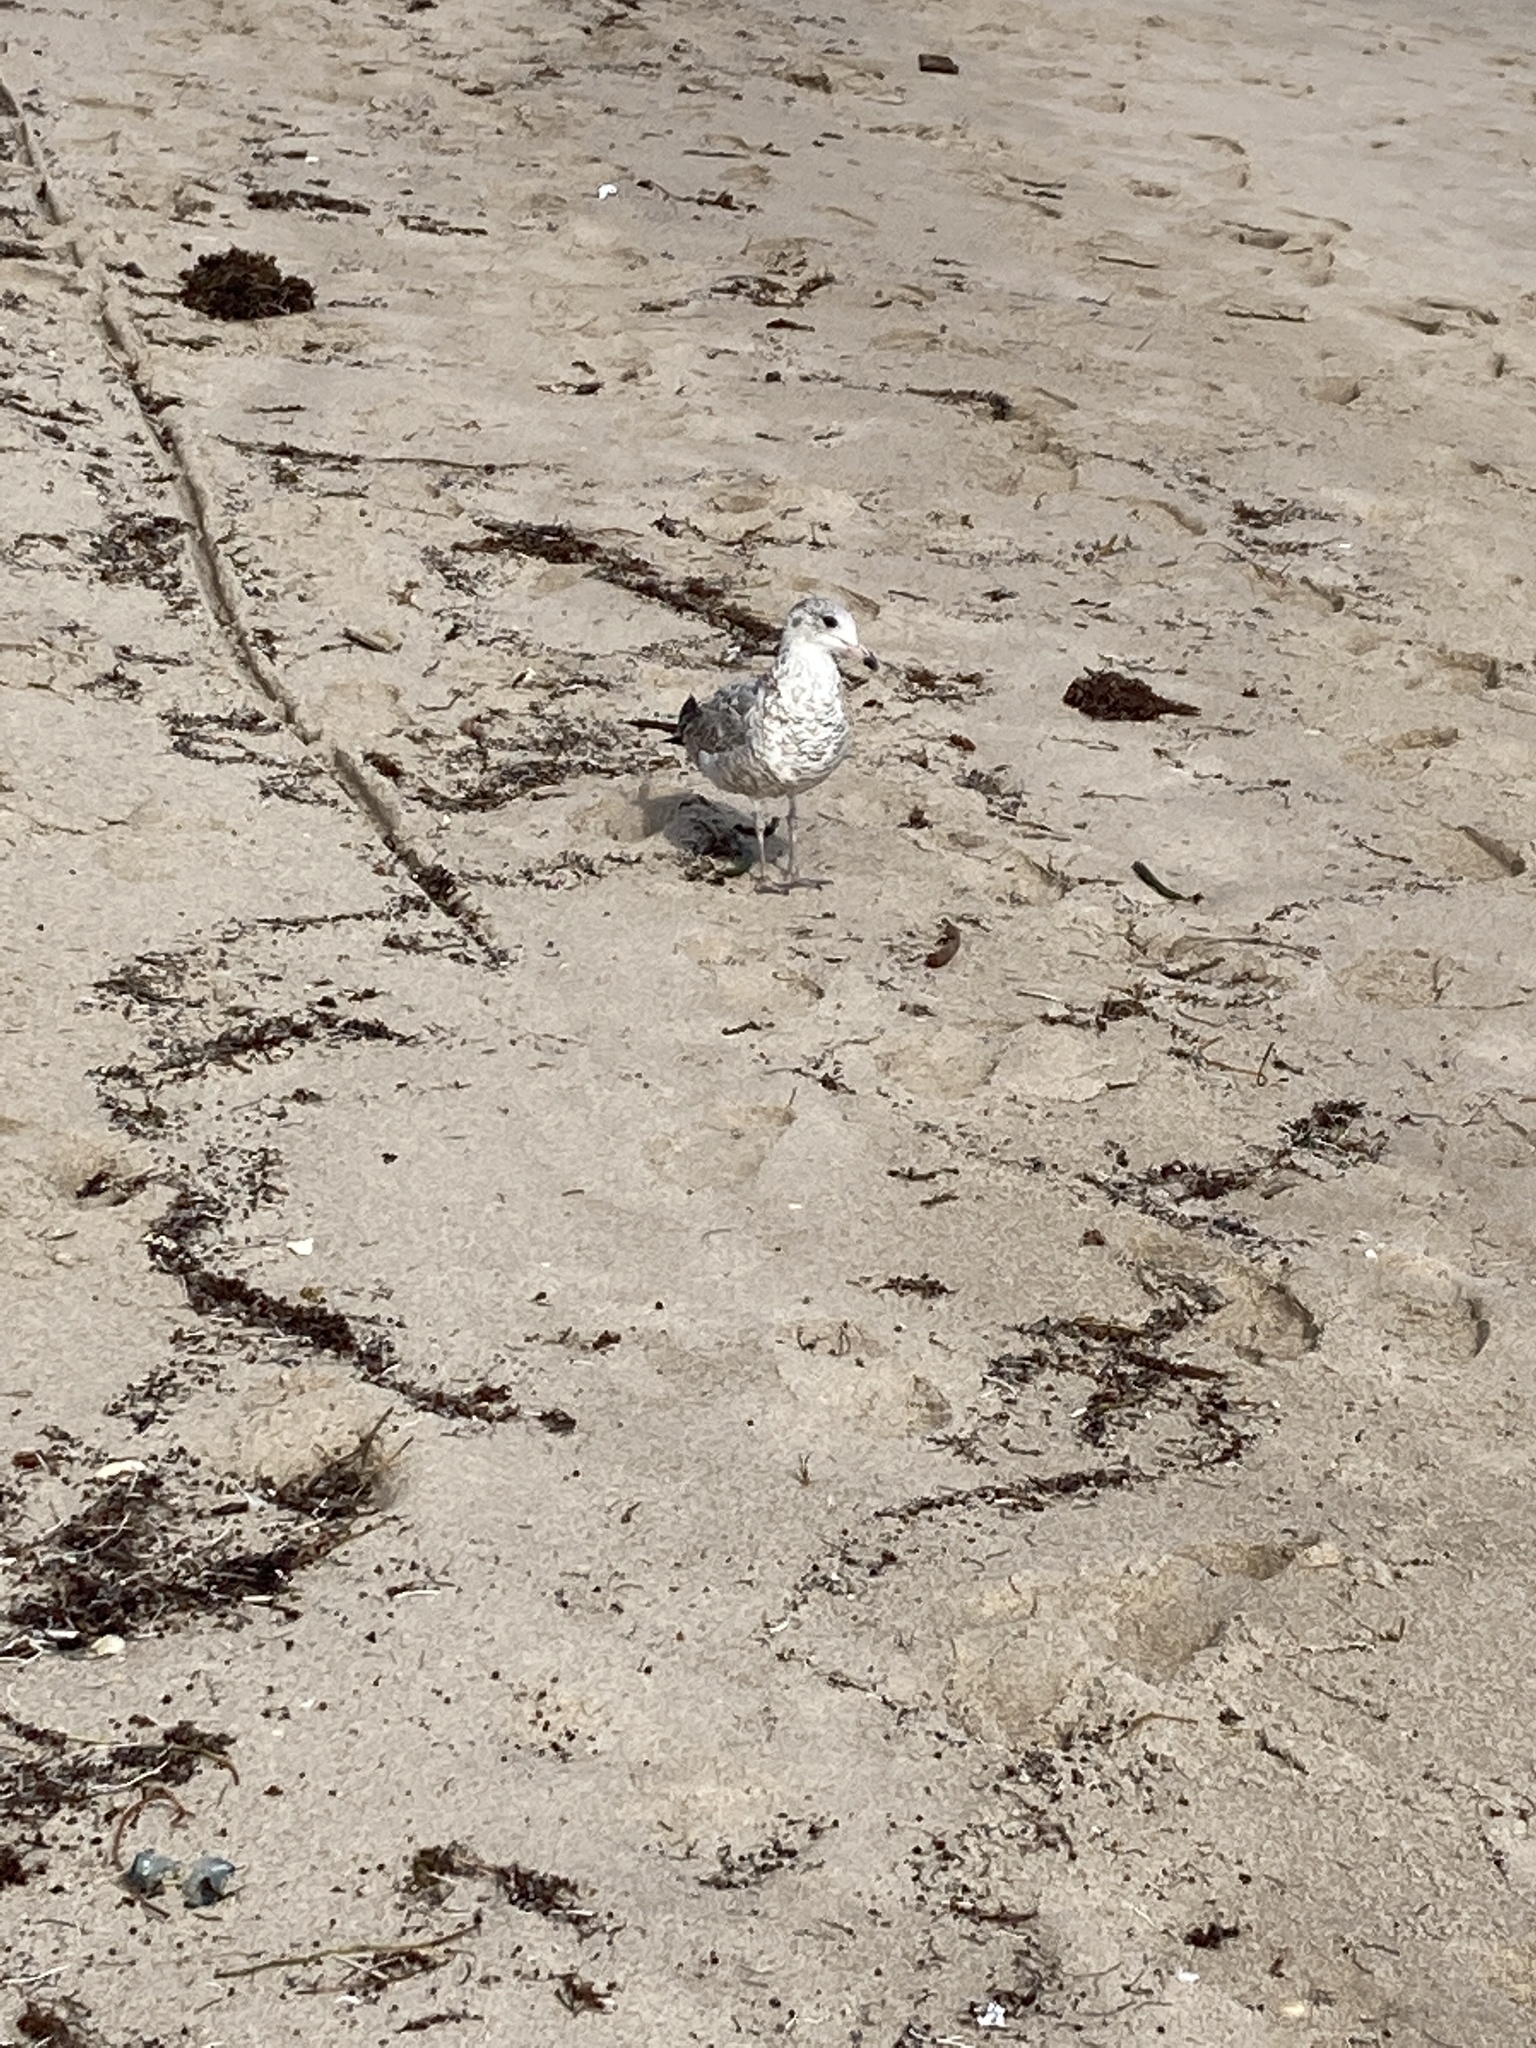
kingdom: Animalia
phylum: Chordata
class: Aves
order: Charadriiformes
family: Laridae
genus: Larus
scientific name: Larus delawarensis
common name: Ring-billed gull
